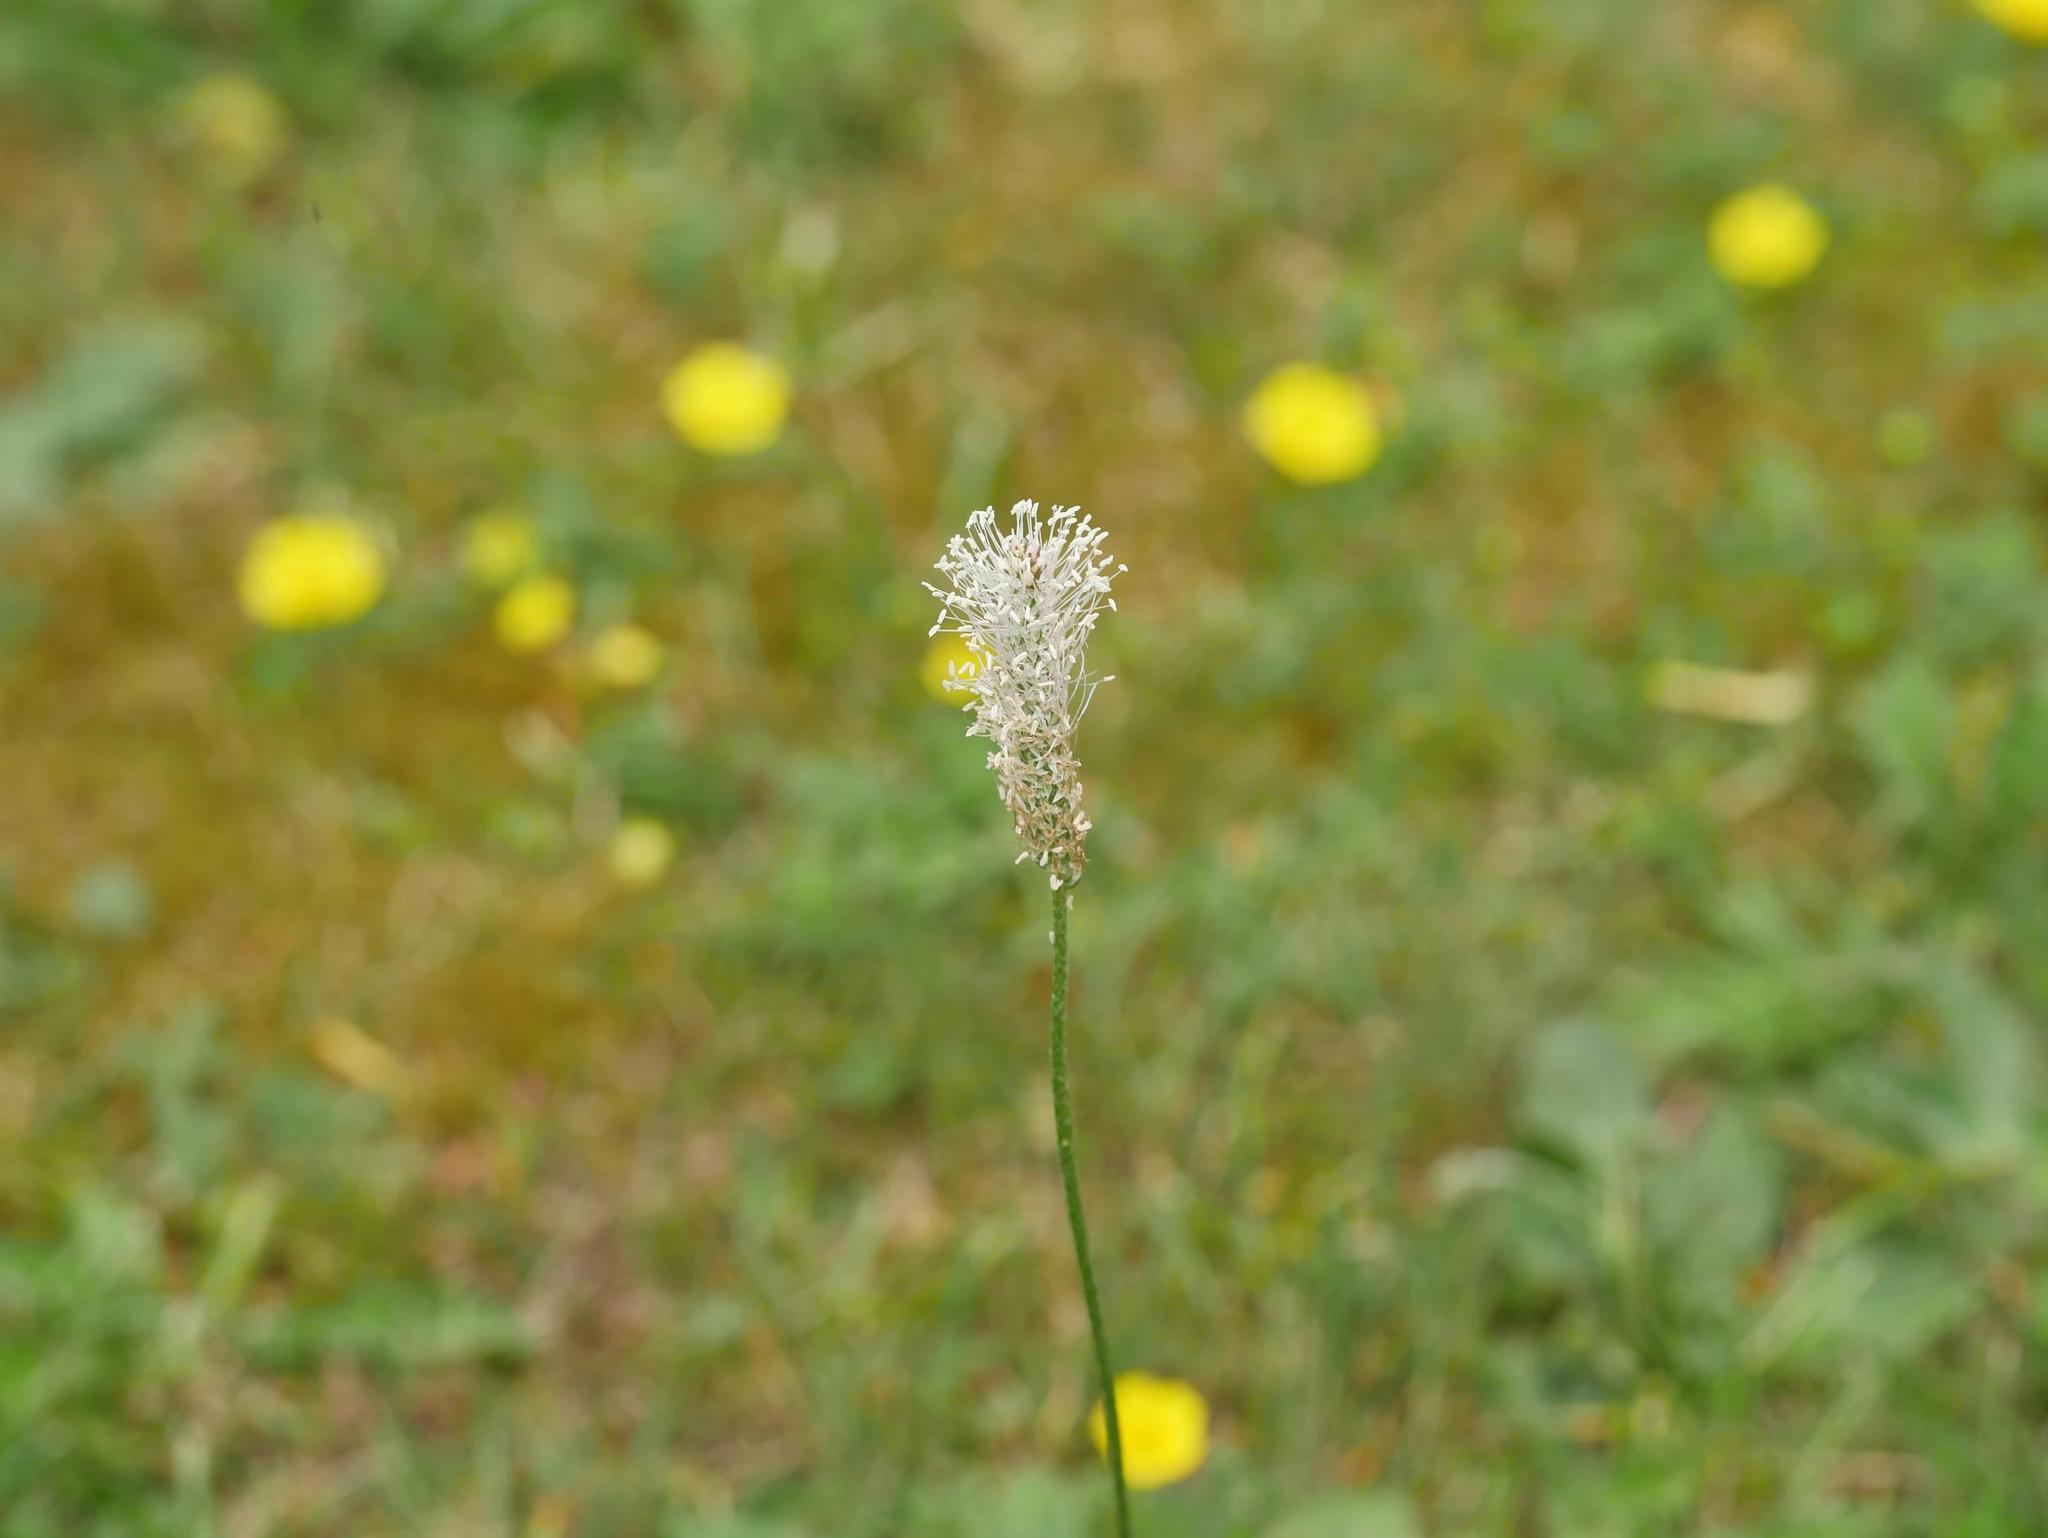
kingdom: Plantae
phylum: Tracheophyta
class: Magnoliopsida
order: Lamiales
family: Plantaginaceae
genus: Plantago
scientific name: Plantago media
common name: Hoary plantain
